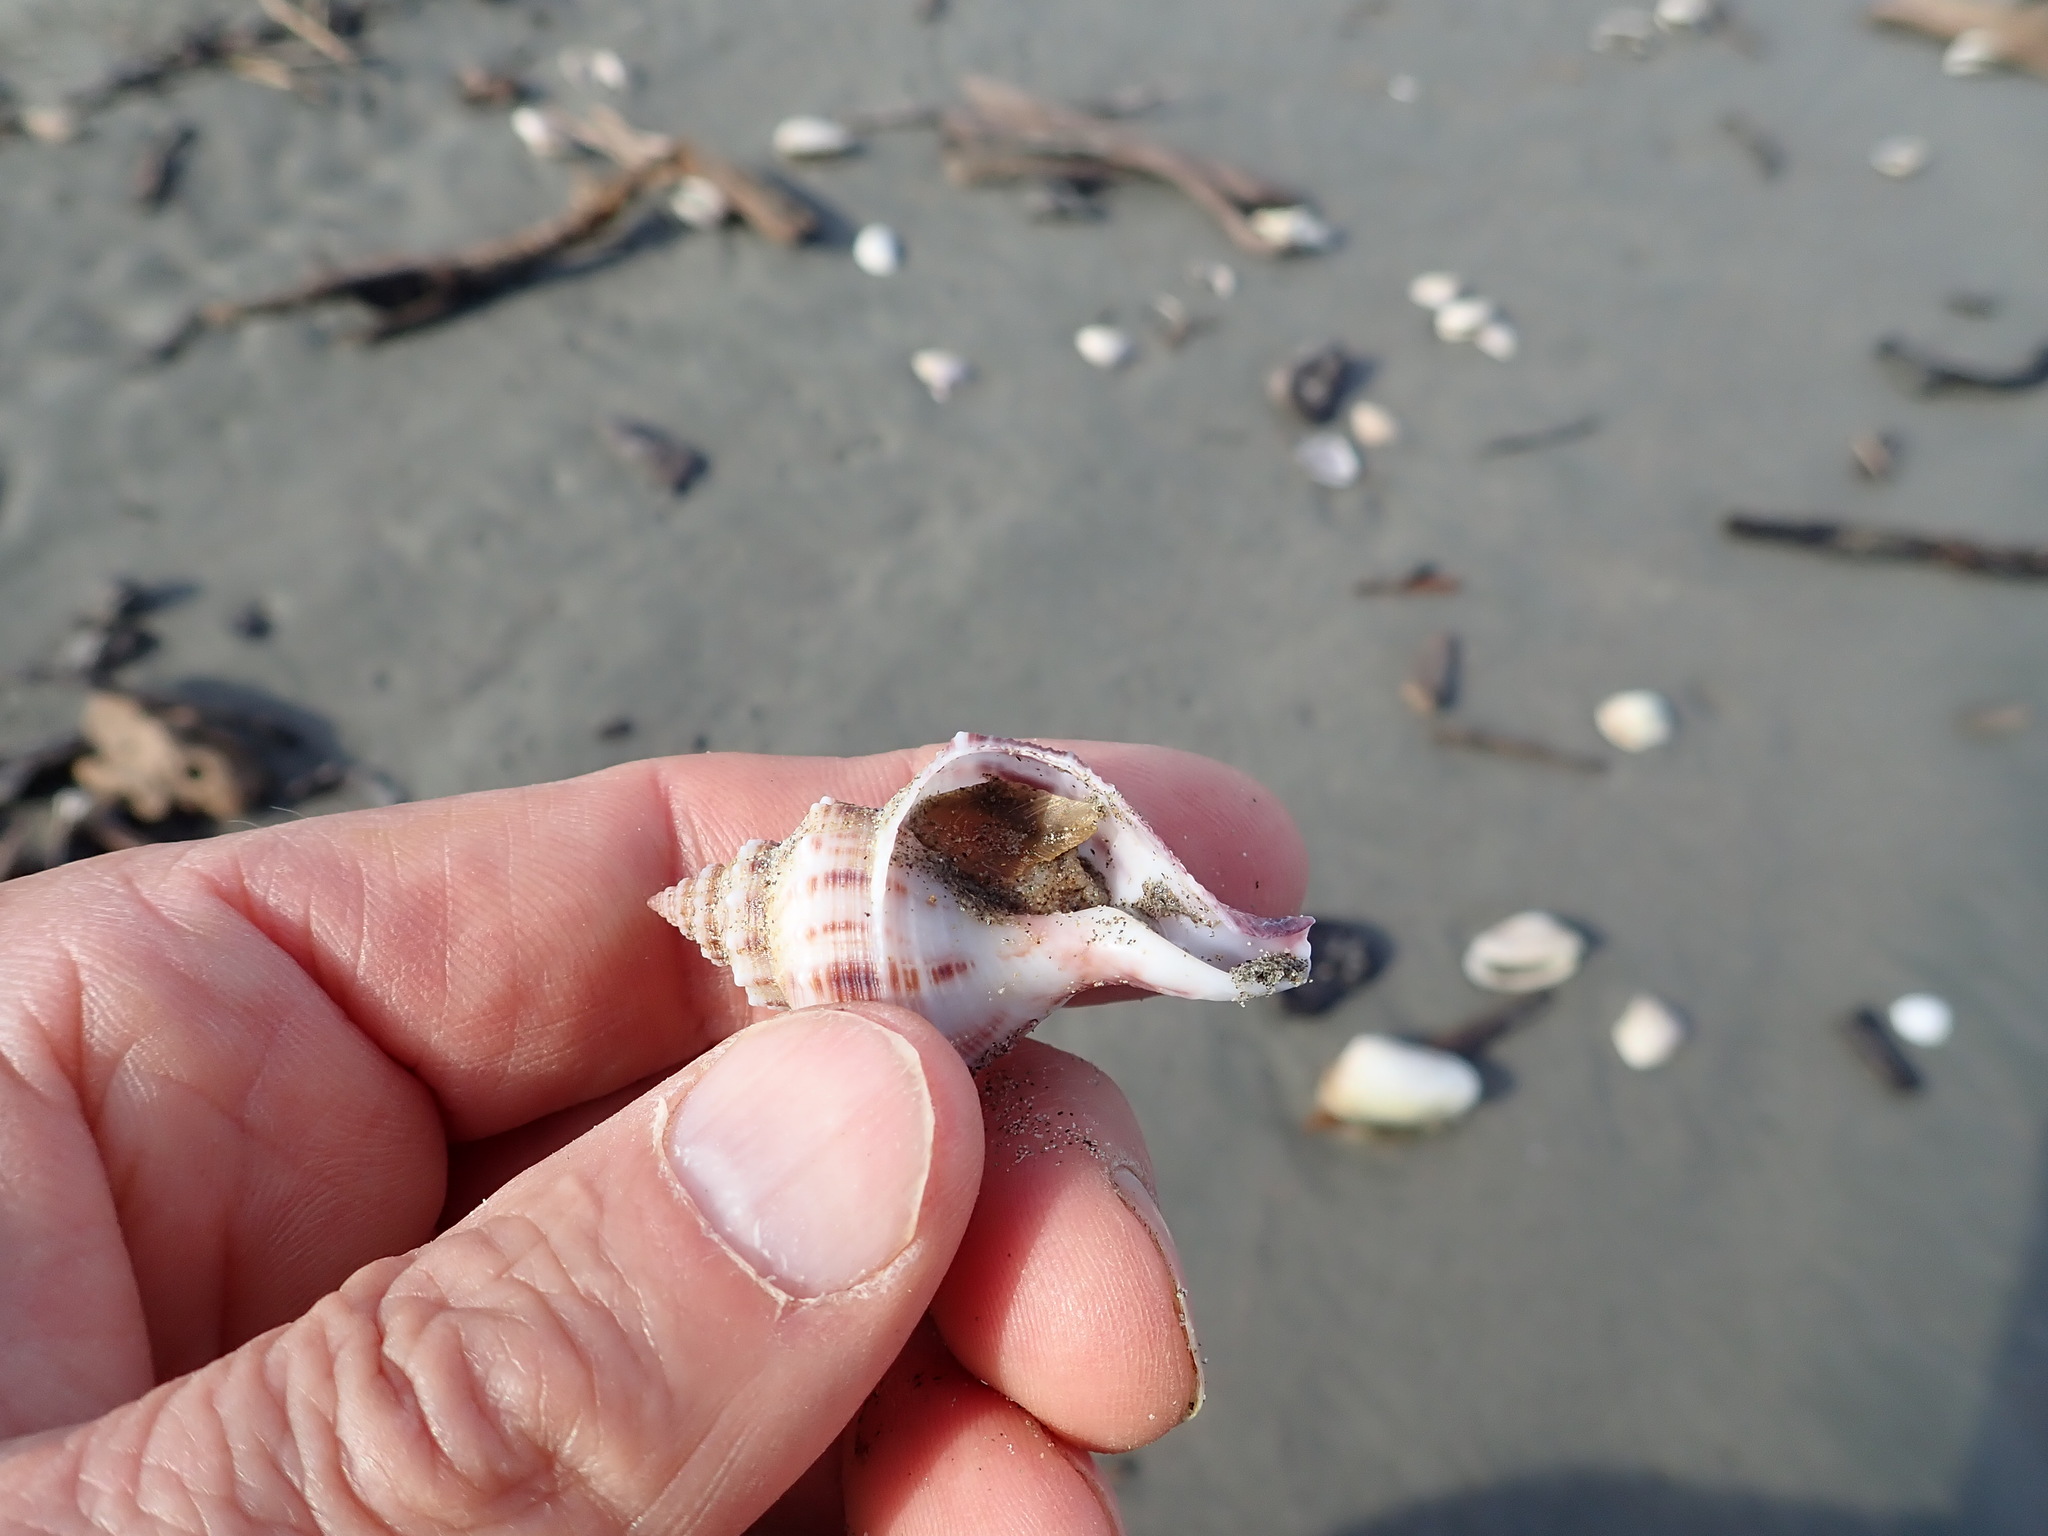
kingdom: Animalia
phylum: Mollusca
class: Gastropoda
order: Neogastropoda
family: Prosiphonidae
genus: Austrofusus
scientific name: Austrofusus glans
